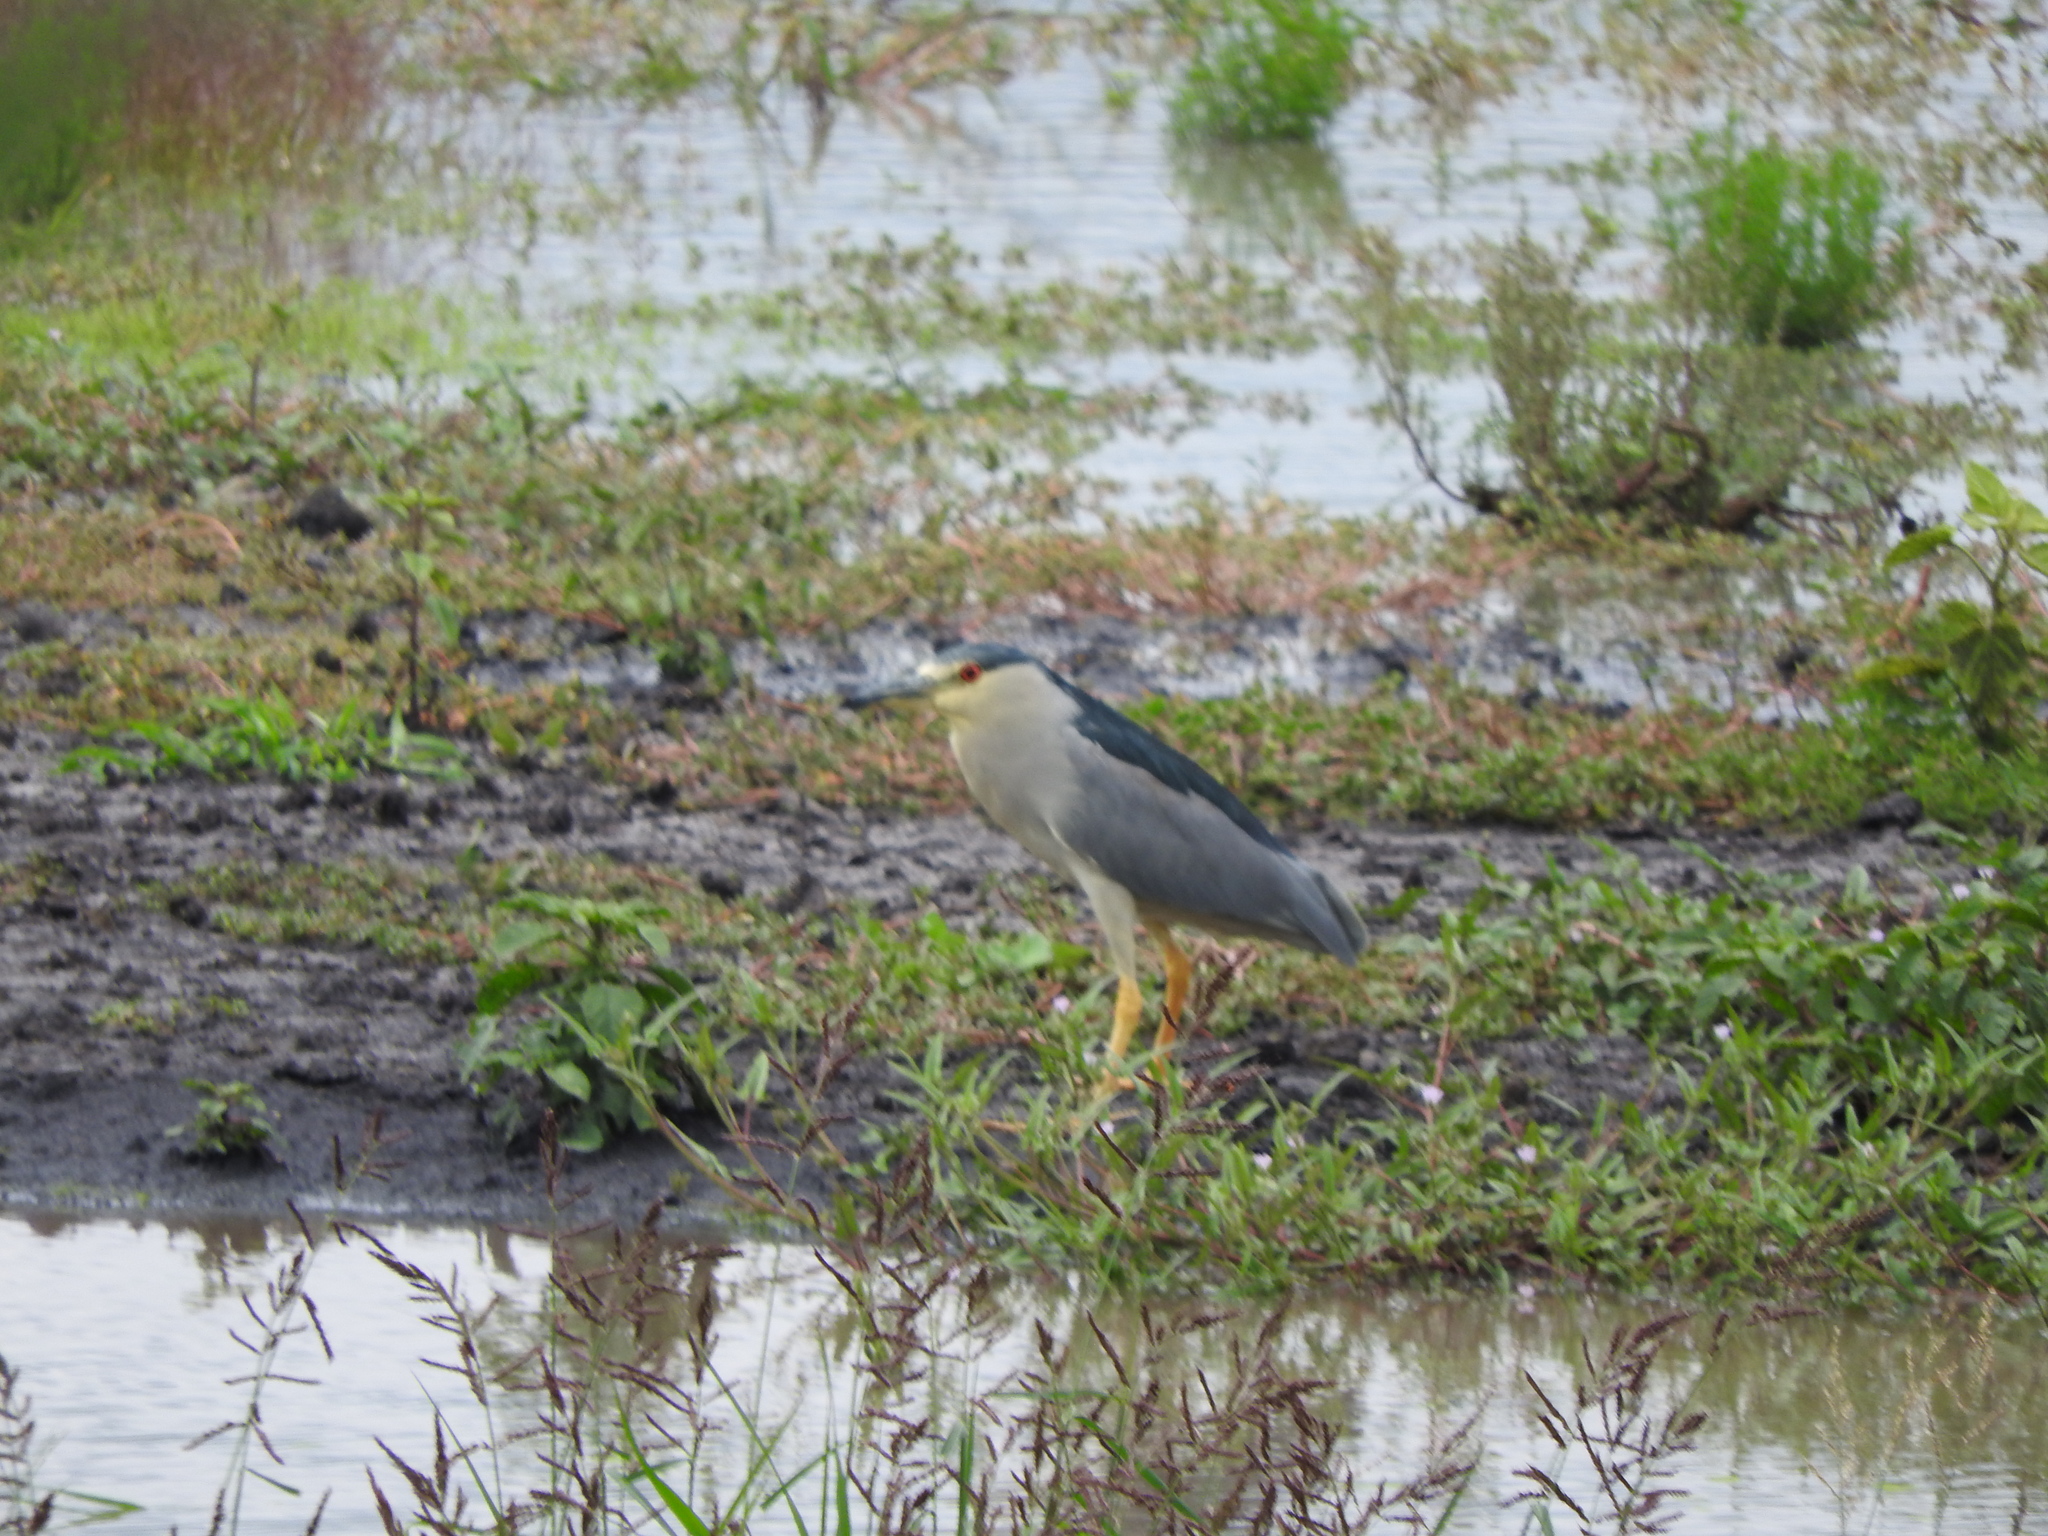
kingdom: Animalia
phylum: Chordata
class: Aves
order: Pelecaniformes
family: Ardeidae
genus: Nycticorax
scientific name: Nycticorax nycticorax
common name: Black-crowned night heron
